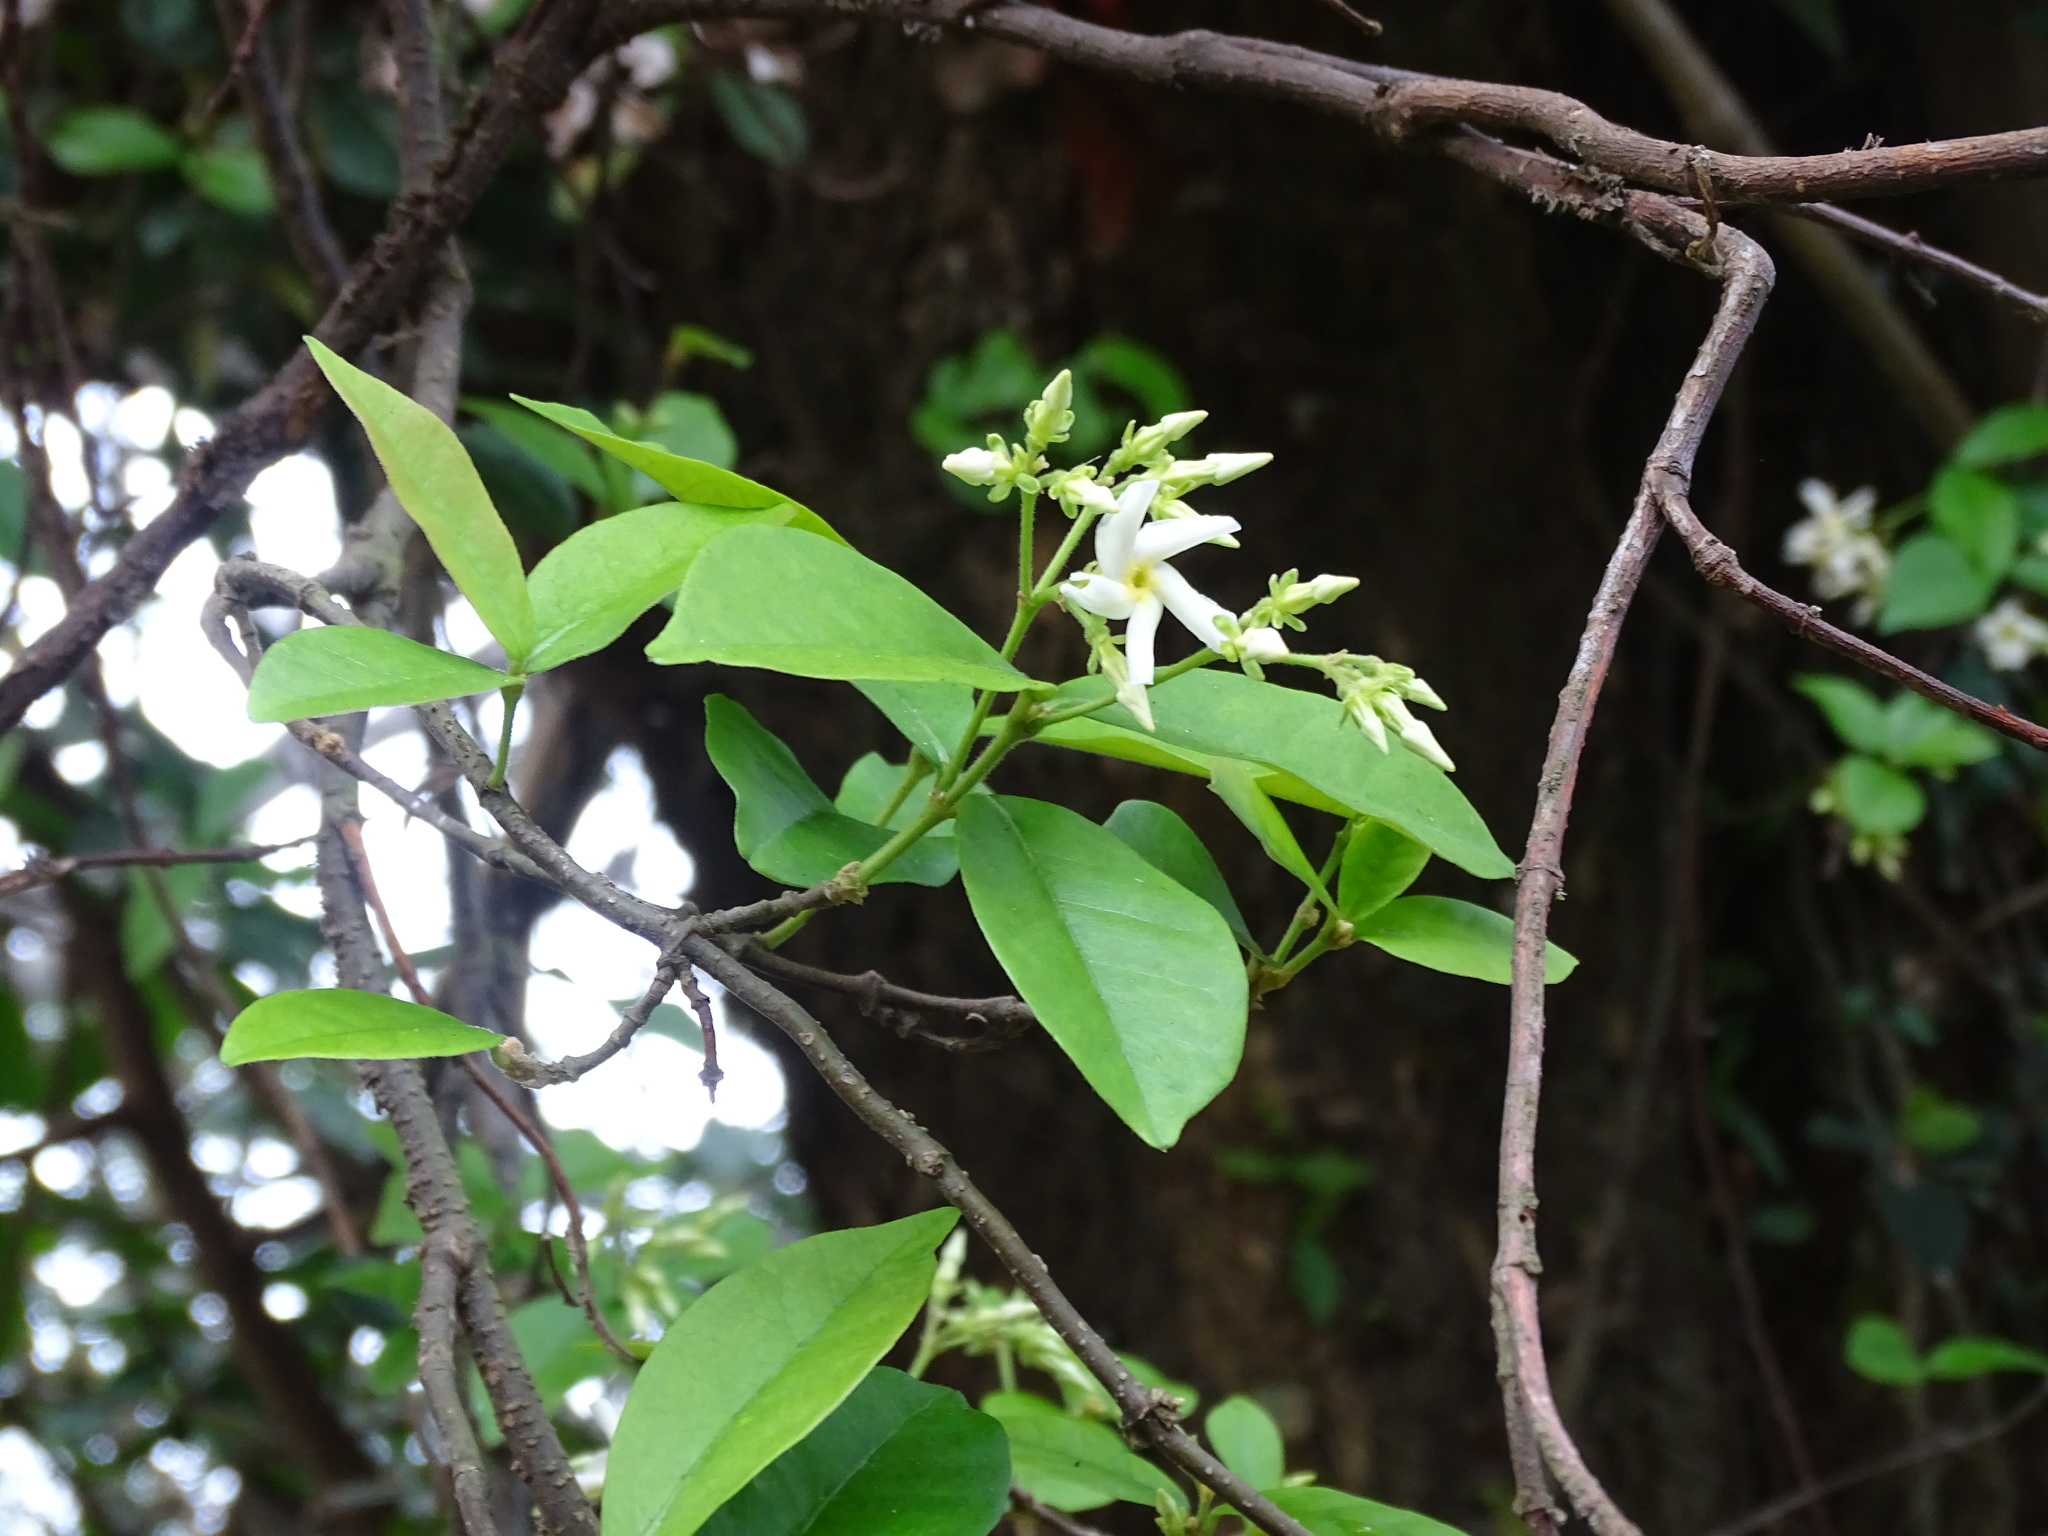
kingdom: Plantae
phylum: Tracheophyta
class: Magnoliopsida
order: Gentianales
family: Apocynaceae
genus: Trachelospermum
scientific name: Trachelospermum jasminoides
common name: Confederate jasmine
